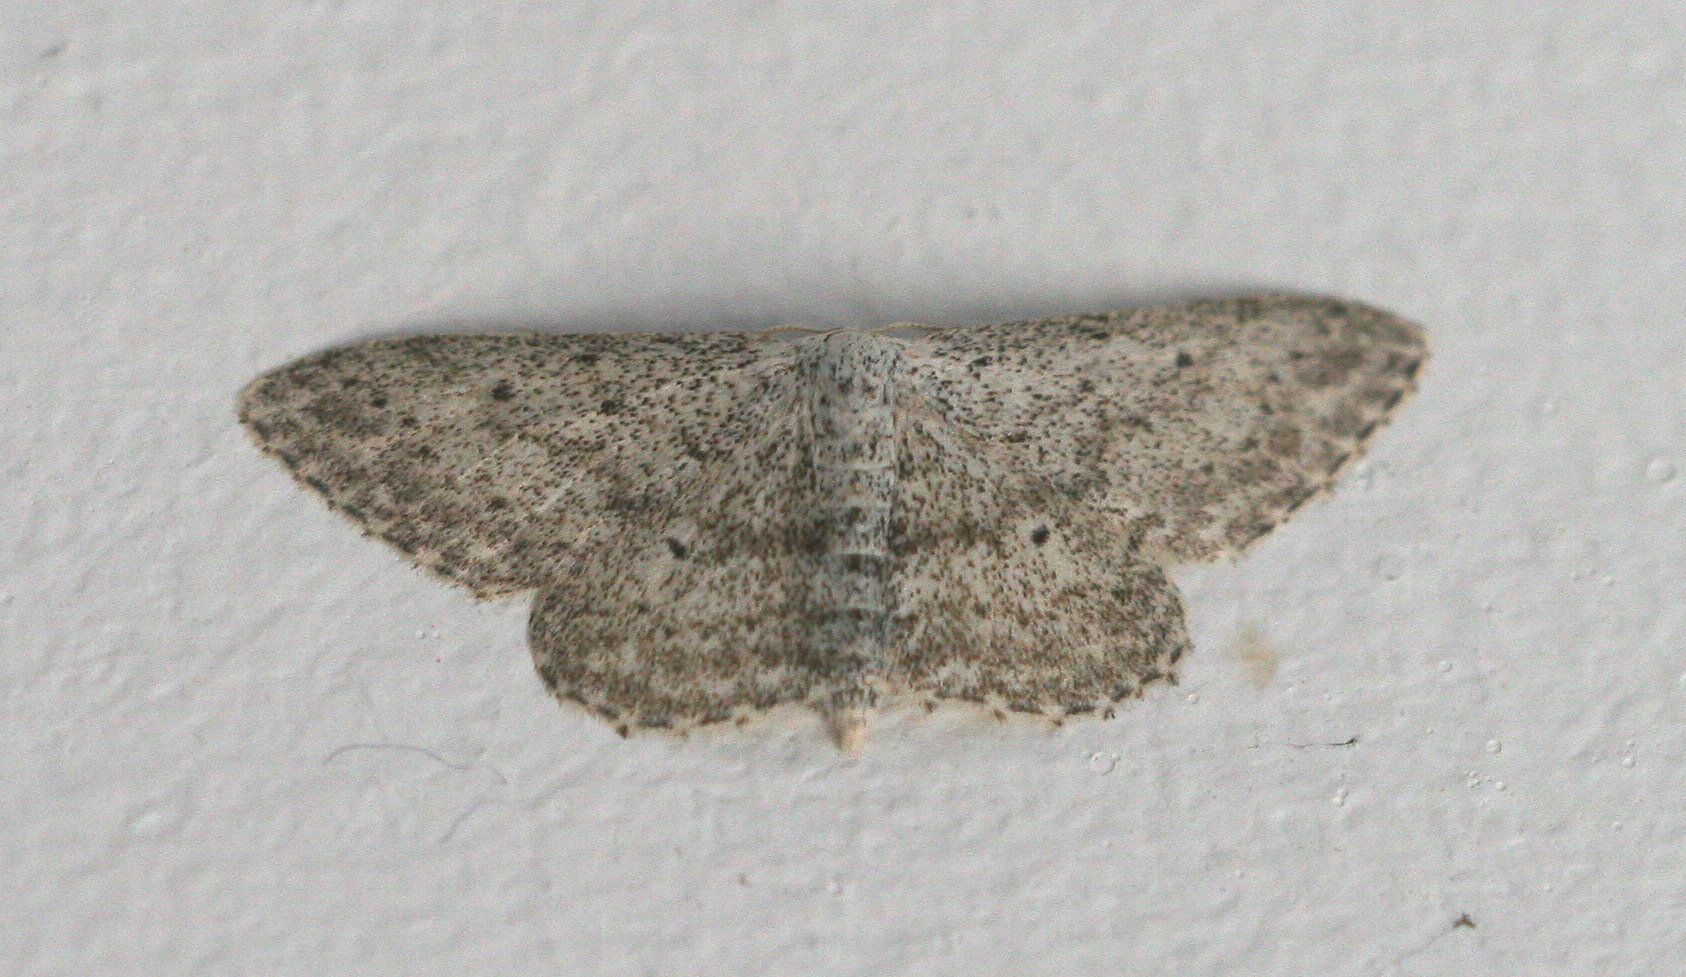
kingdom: Animalia
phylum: Arthropoda
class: Insecta
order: Lepidoptera
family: Geometridae
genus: Idaea
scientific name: Idaea seriata
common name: Small dusty wave
